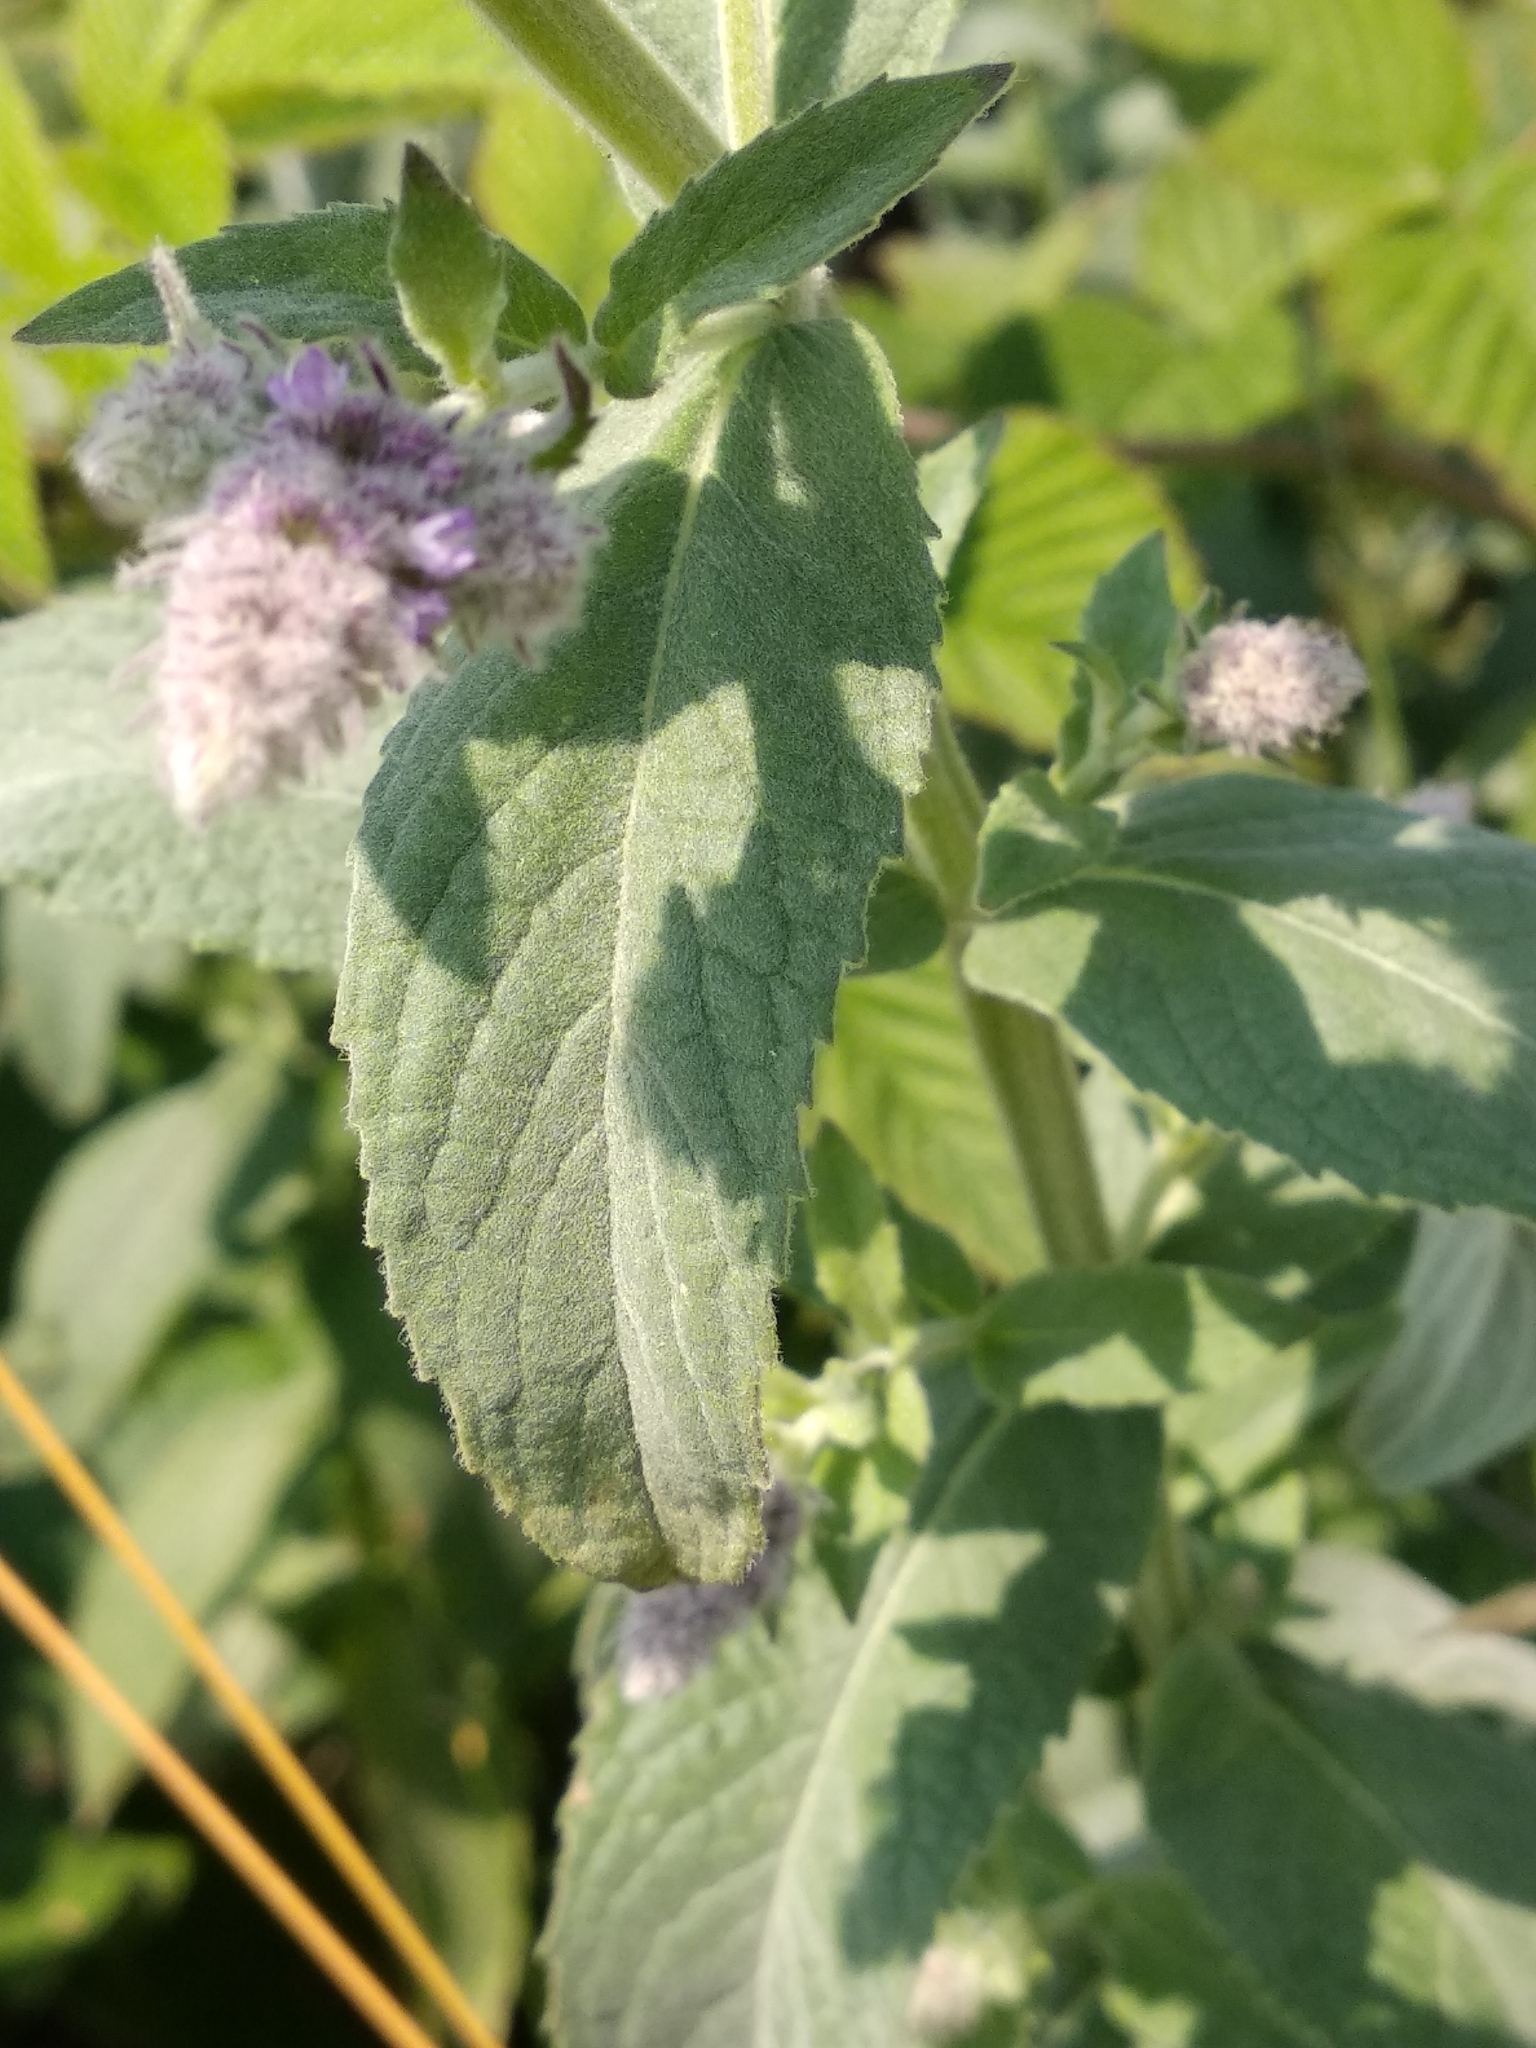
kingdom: Plantae
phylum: Tracheophyta
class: Magnoliopsida
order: Lamiales
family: Lamiaceae
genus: Mentha
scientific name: Mentha longifolia
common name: Horse mint
